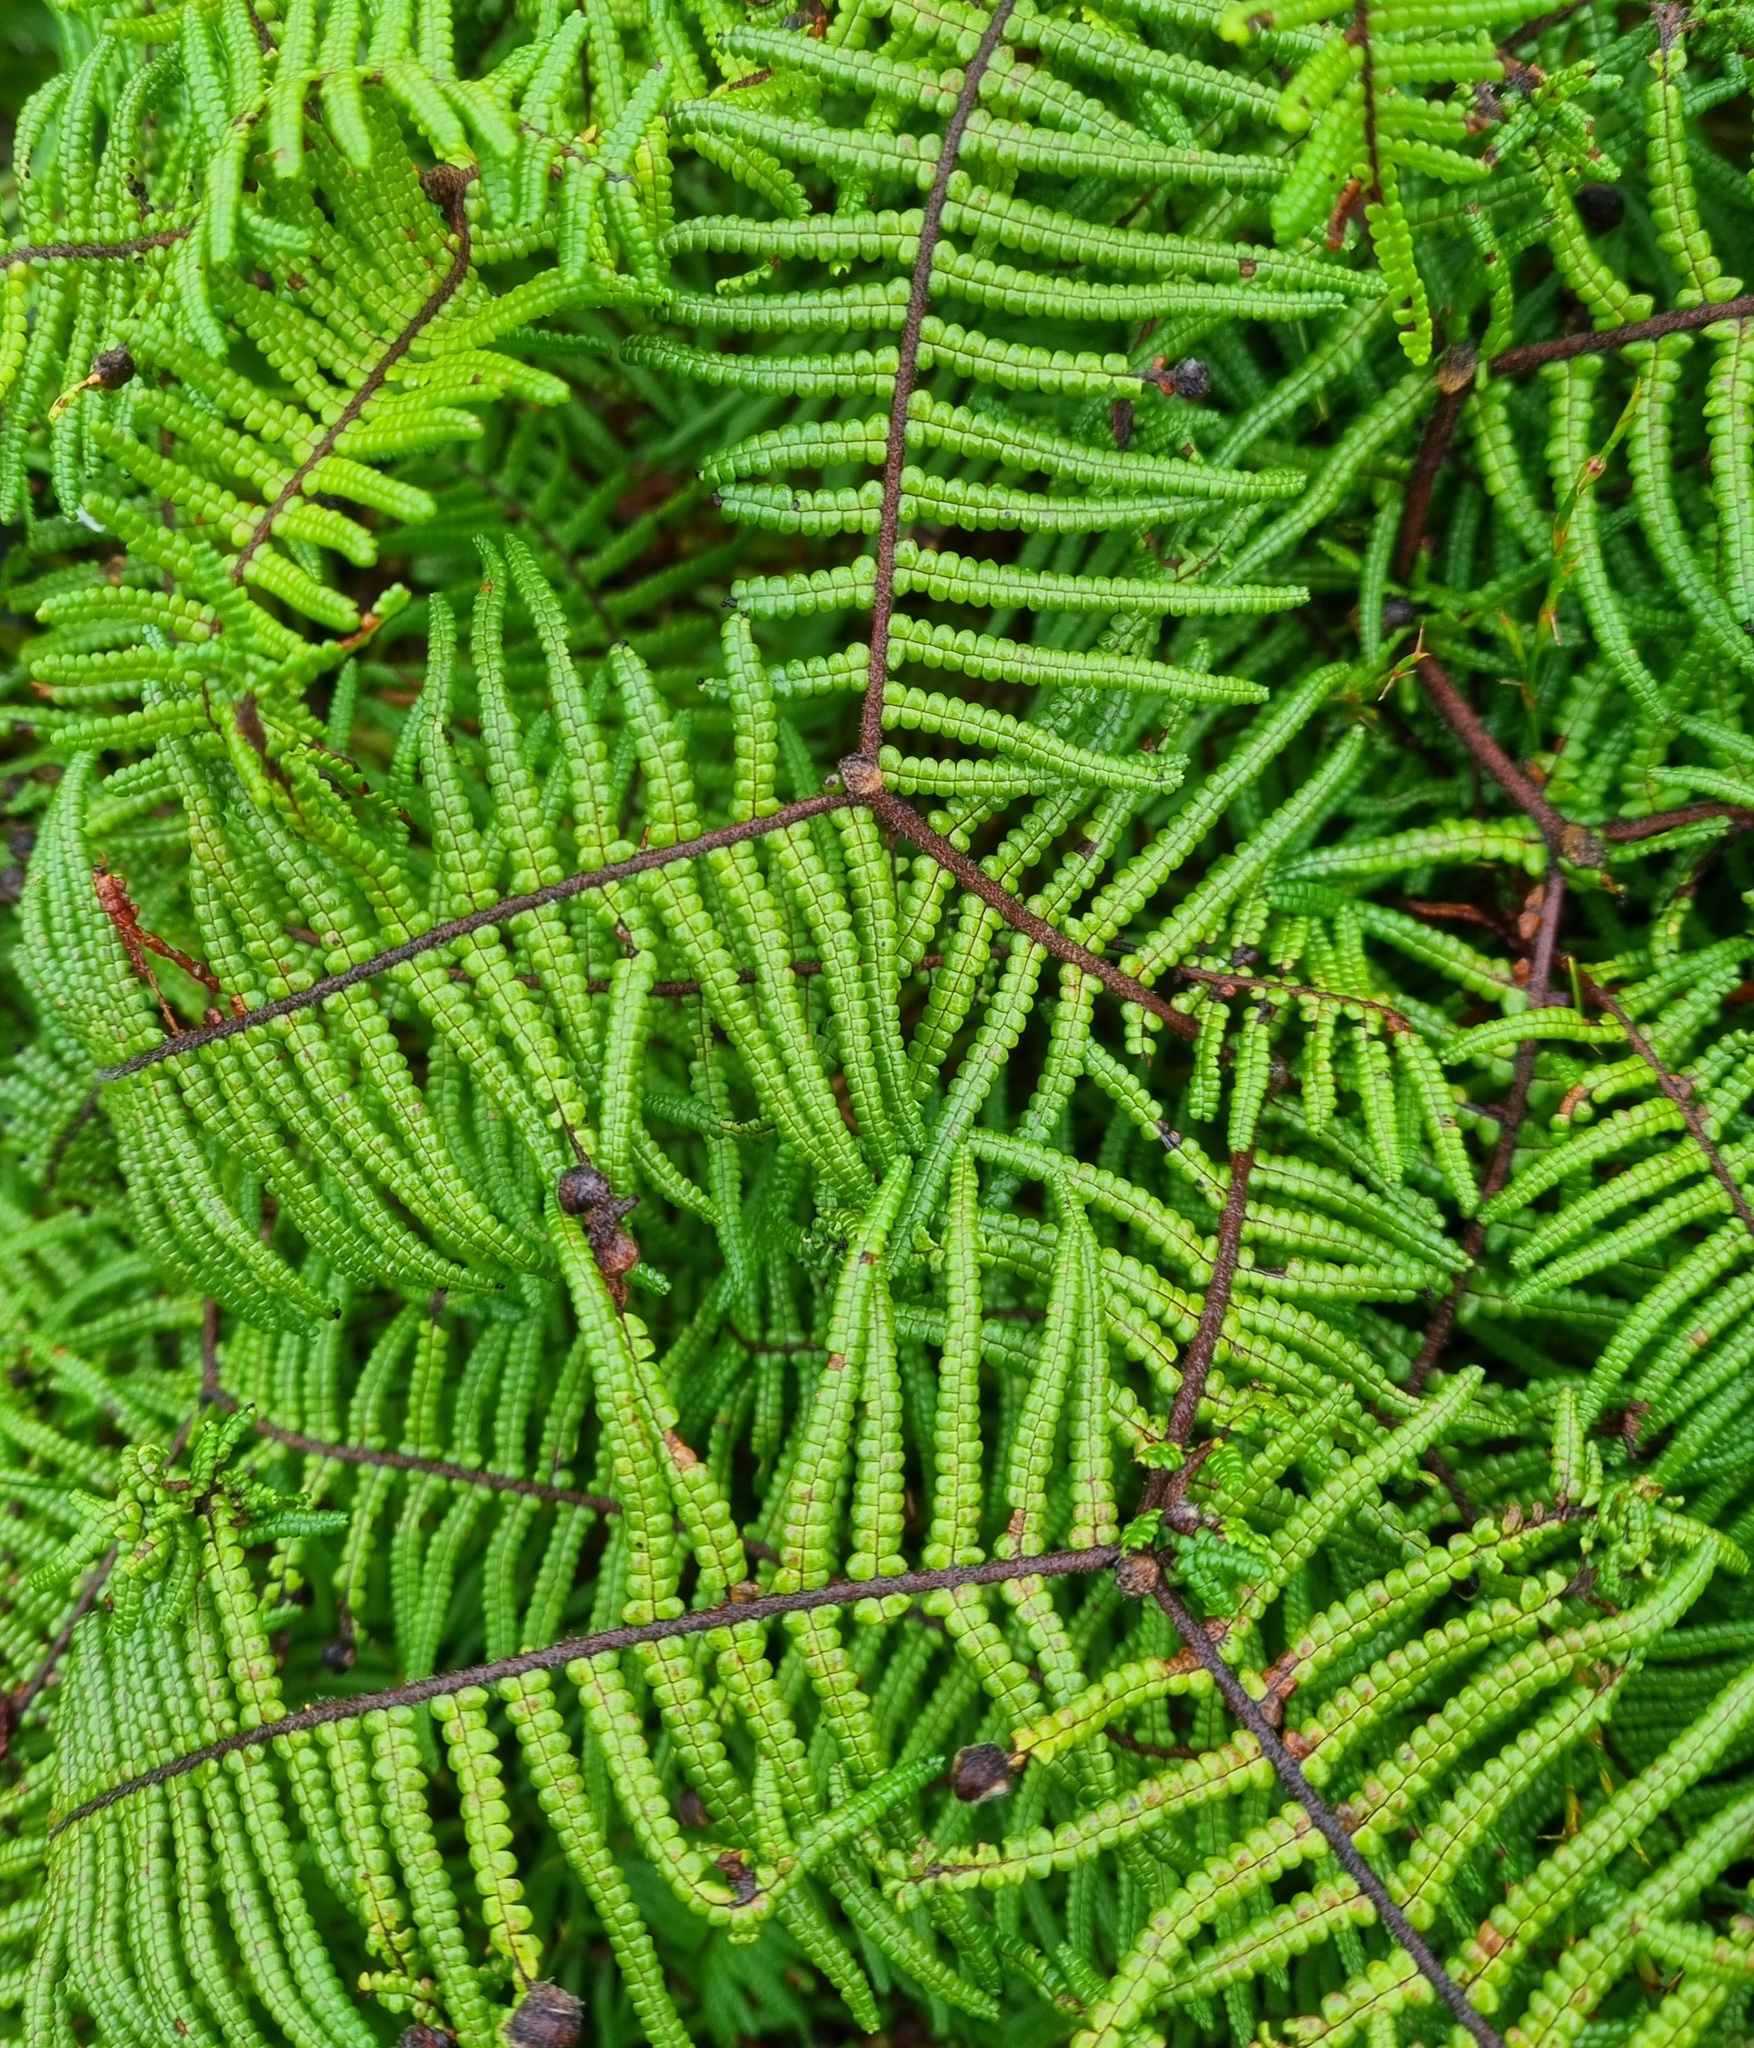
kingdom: Plantae
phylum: Tracheophyta
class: Polypodiopsida
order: Gleicheniales
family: Gleicheniaceae
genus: Gleichenia
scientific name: Gleichenia microphylla
